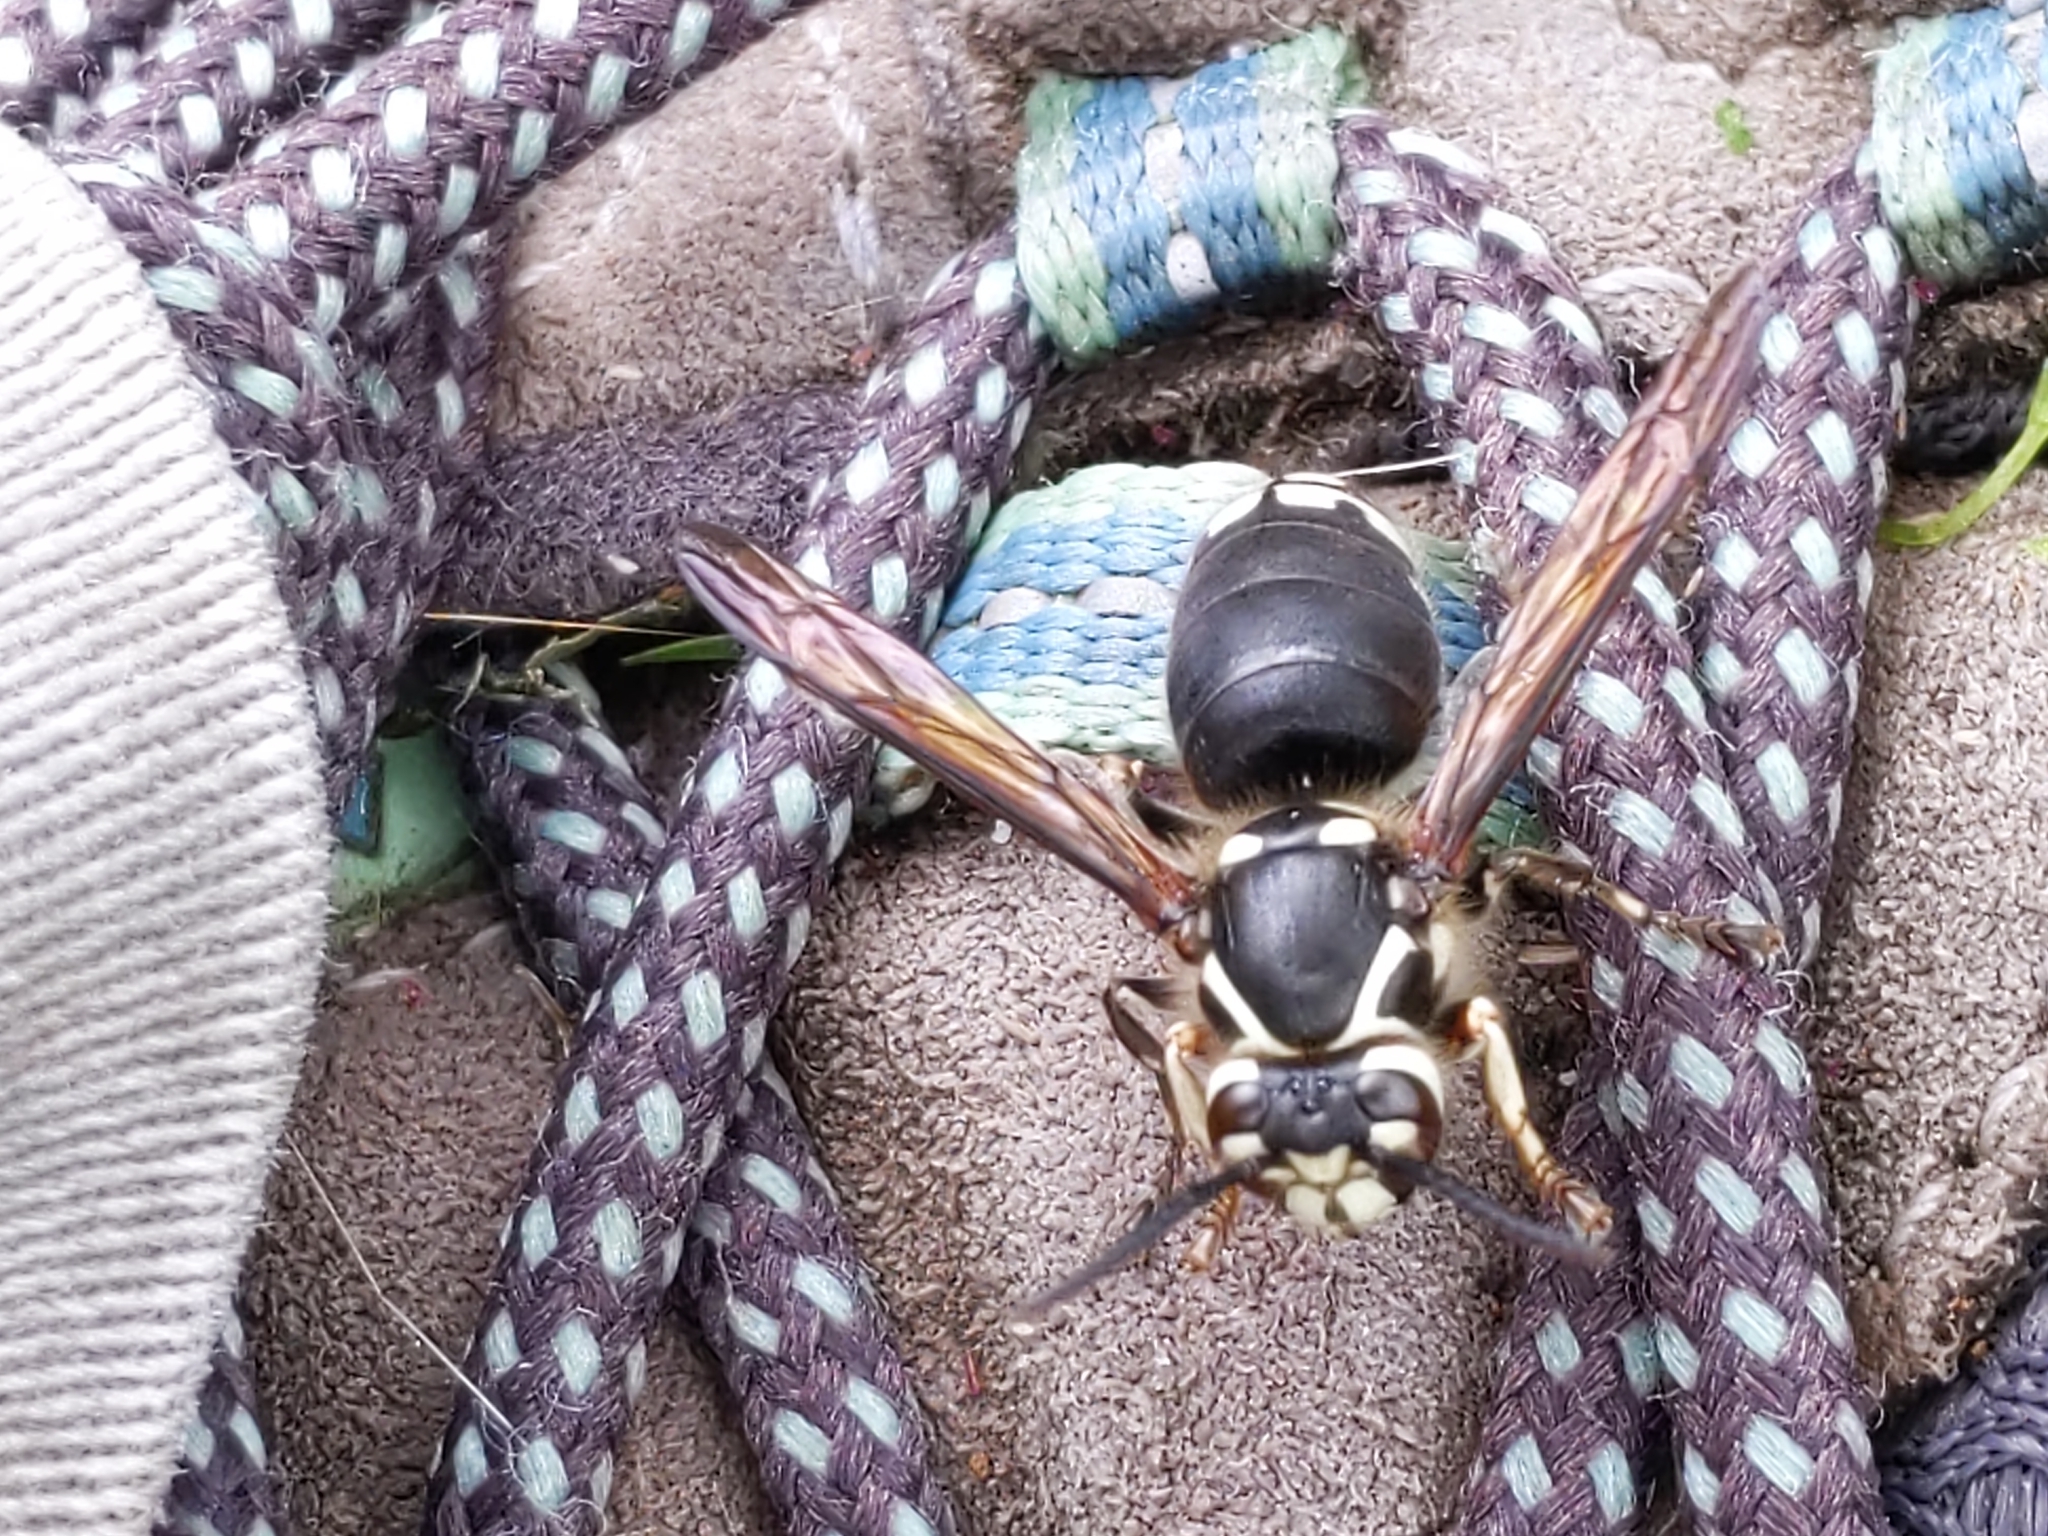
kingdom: Animalia
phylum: Arthropoda
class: Insecta
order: Hymenoptera
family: Vespidae
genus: Dolichovespula
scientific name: Dolichovespula maculata
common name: Bald-faced hornet
